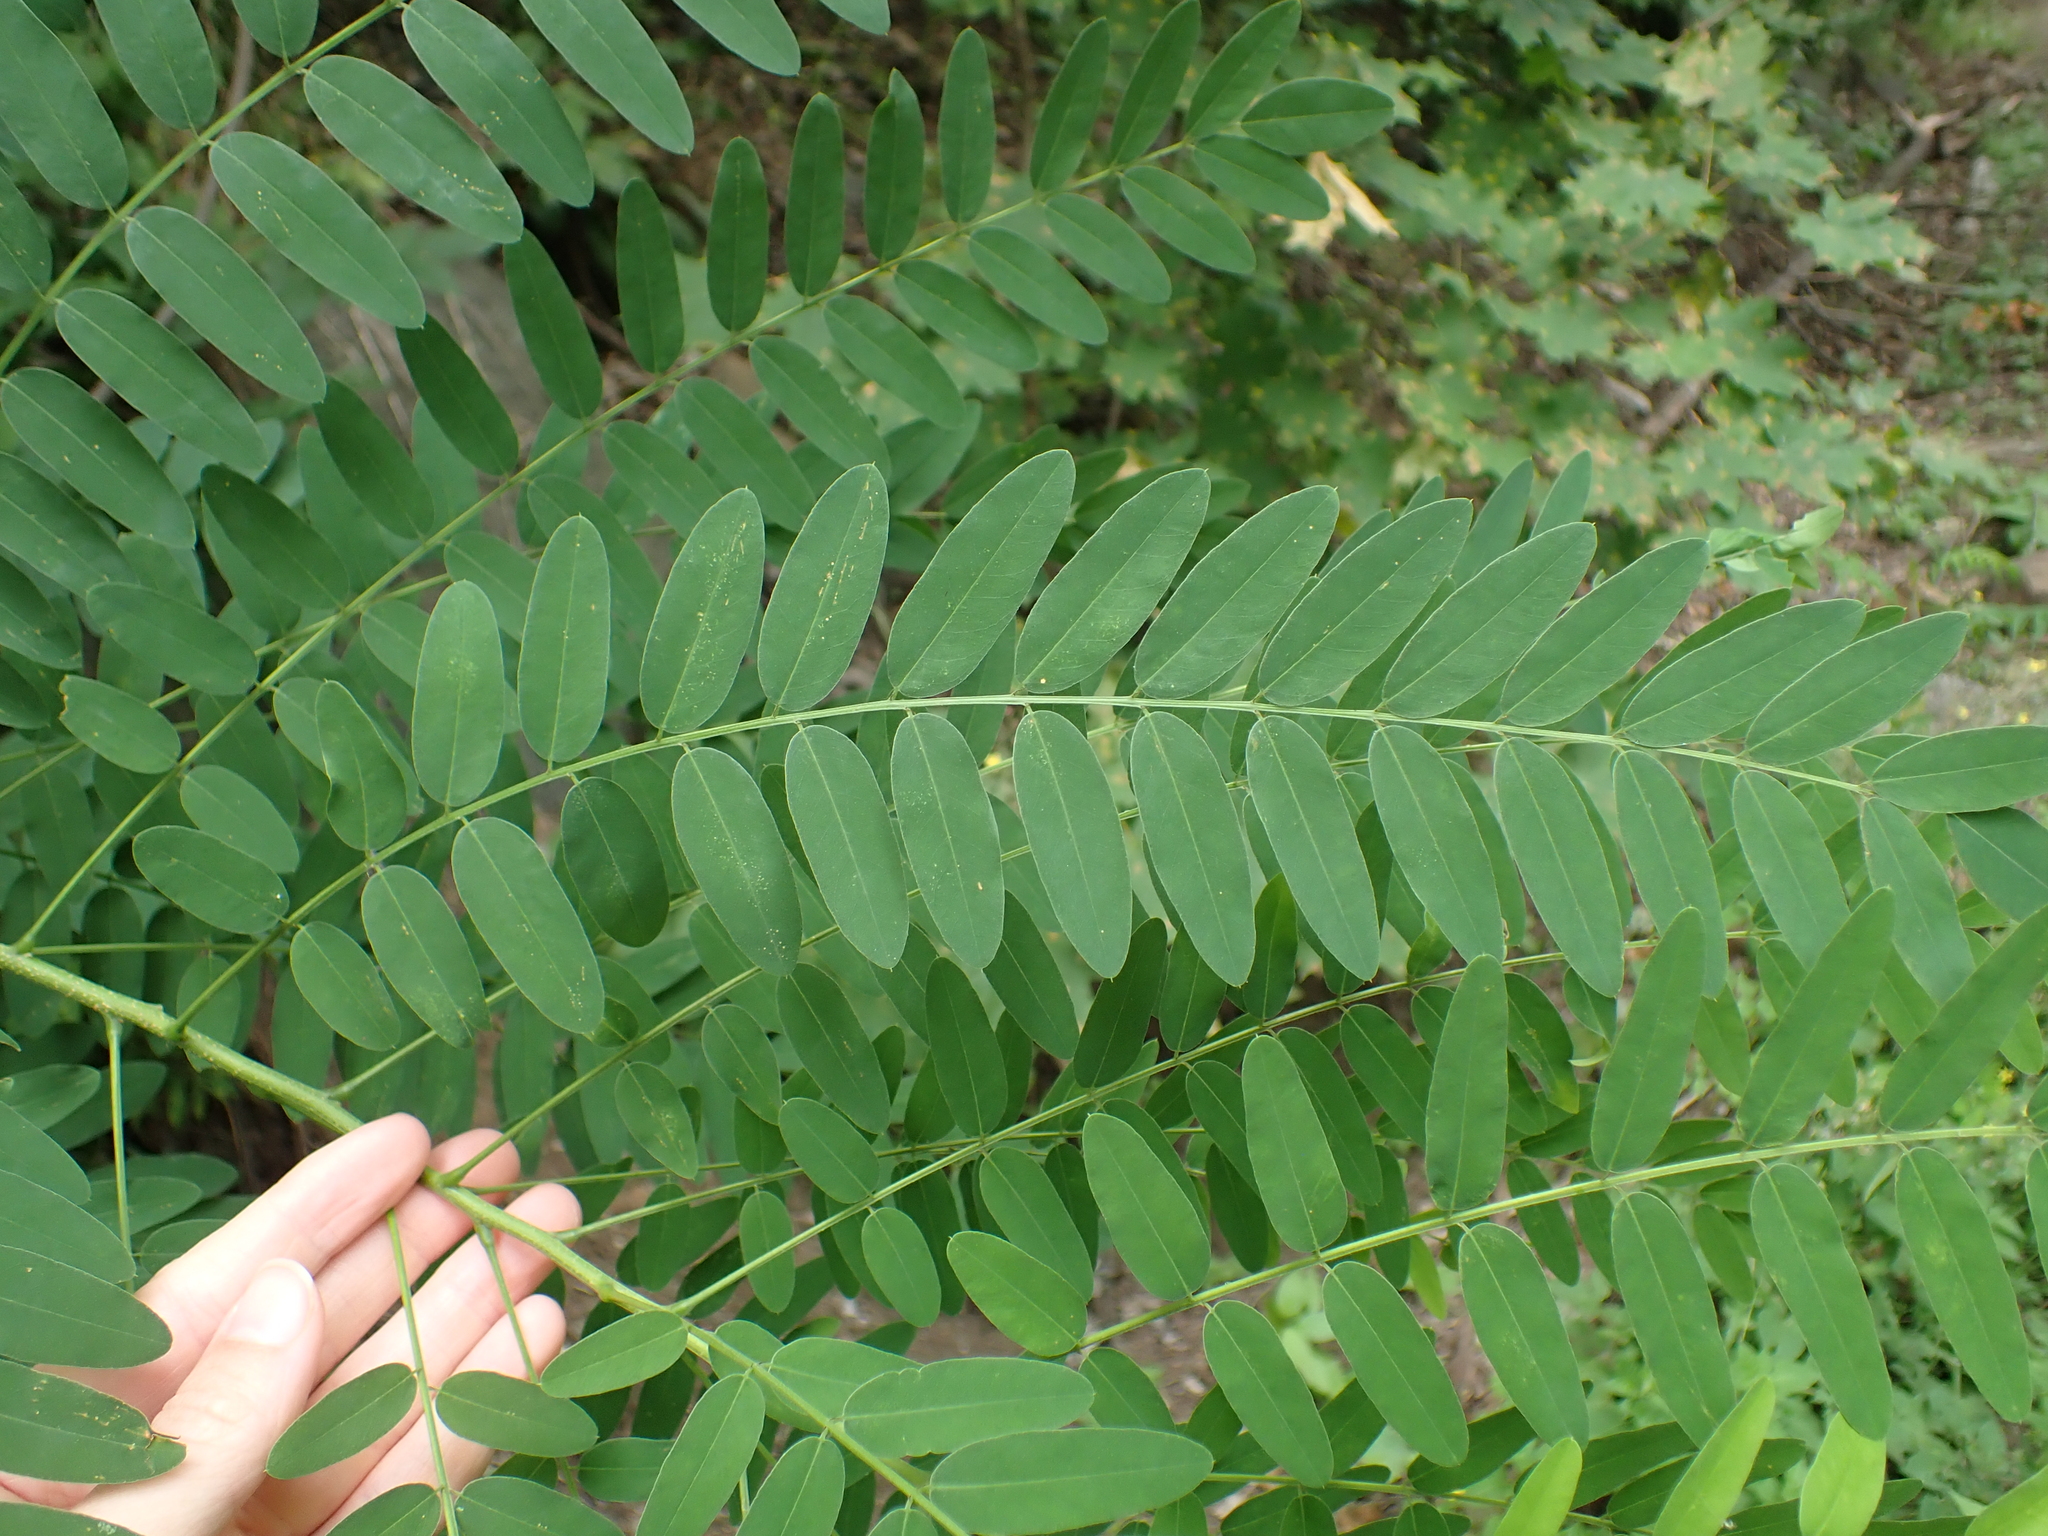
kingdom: Plantae
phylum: Tracheophyta
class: Magnoliopsida
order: Fabales
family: Fabaceae
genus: Gleditsia
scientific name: Gleditsia triacanthos
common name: Common honeylocust
